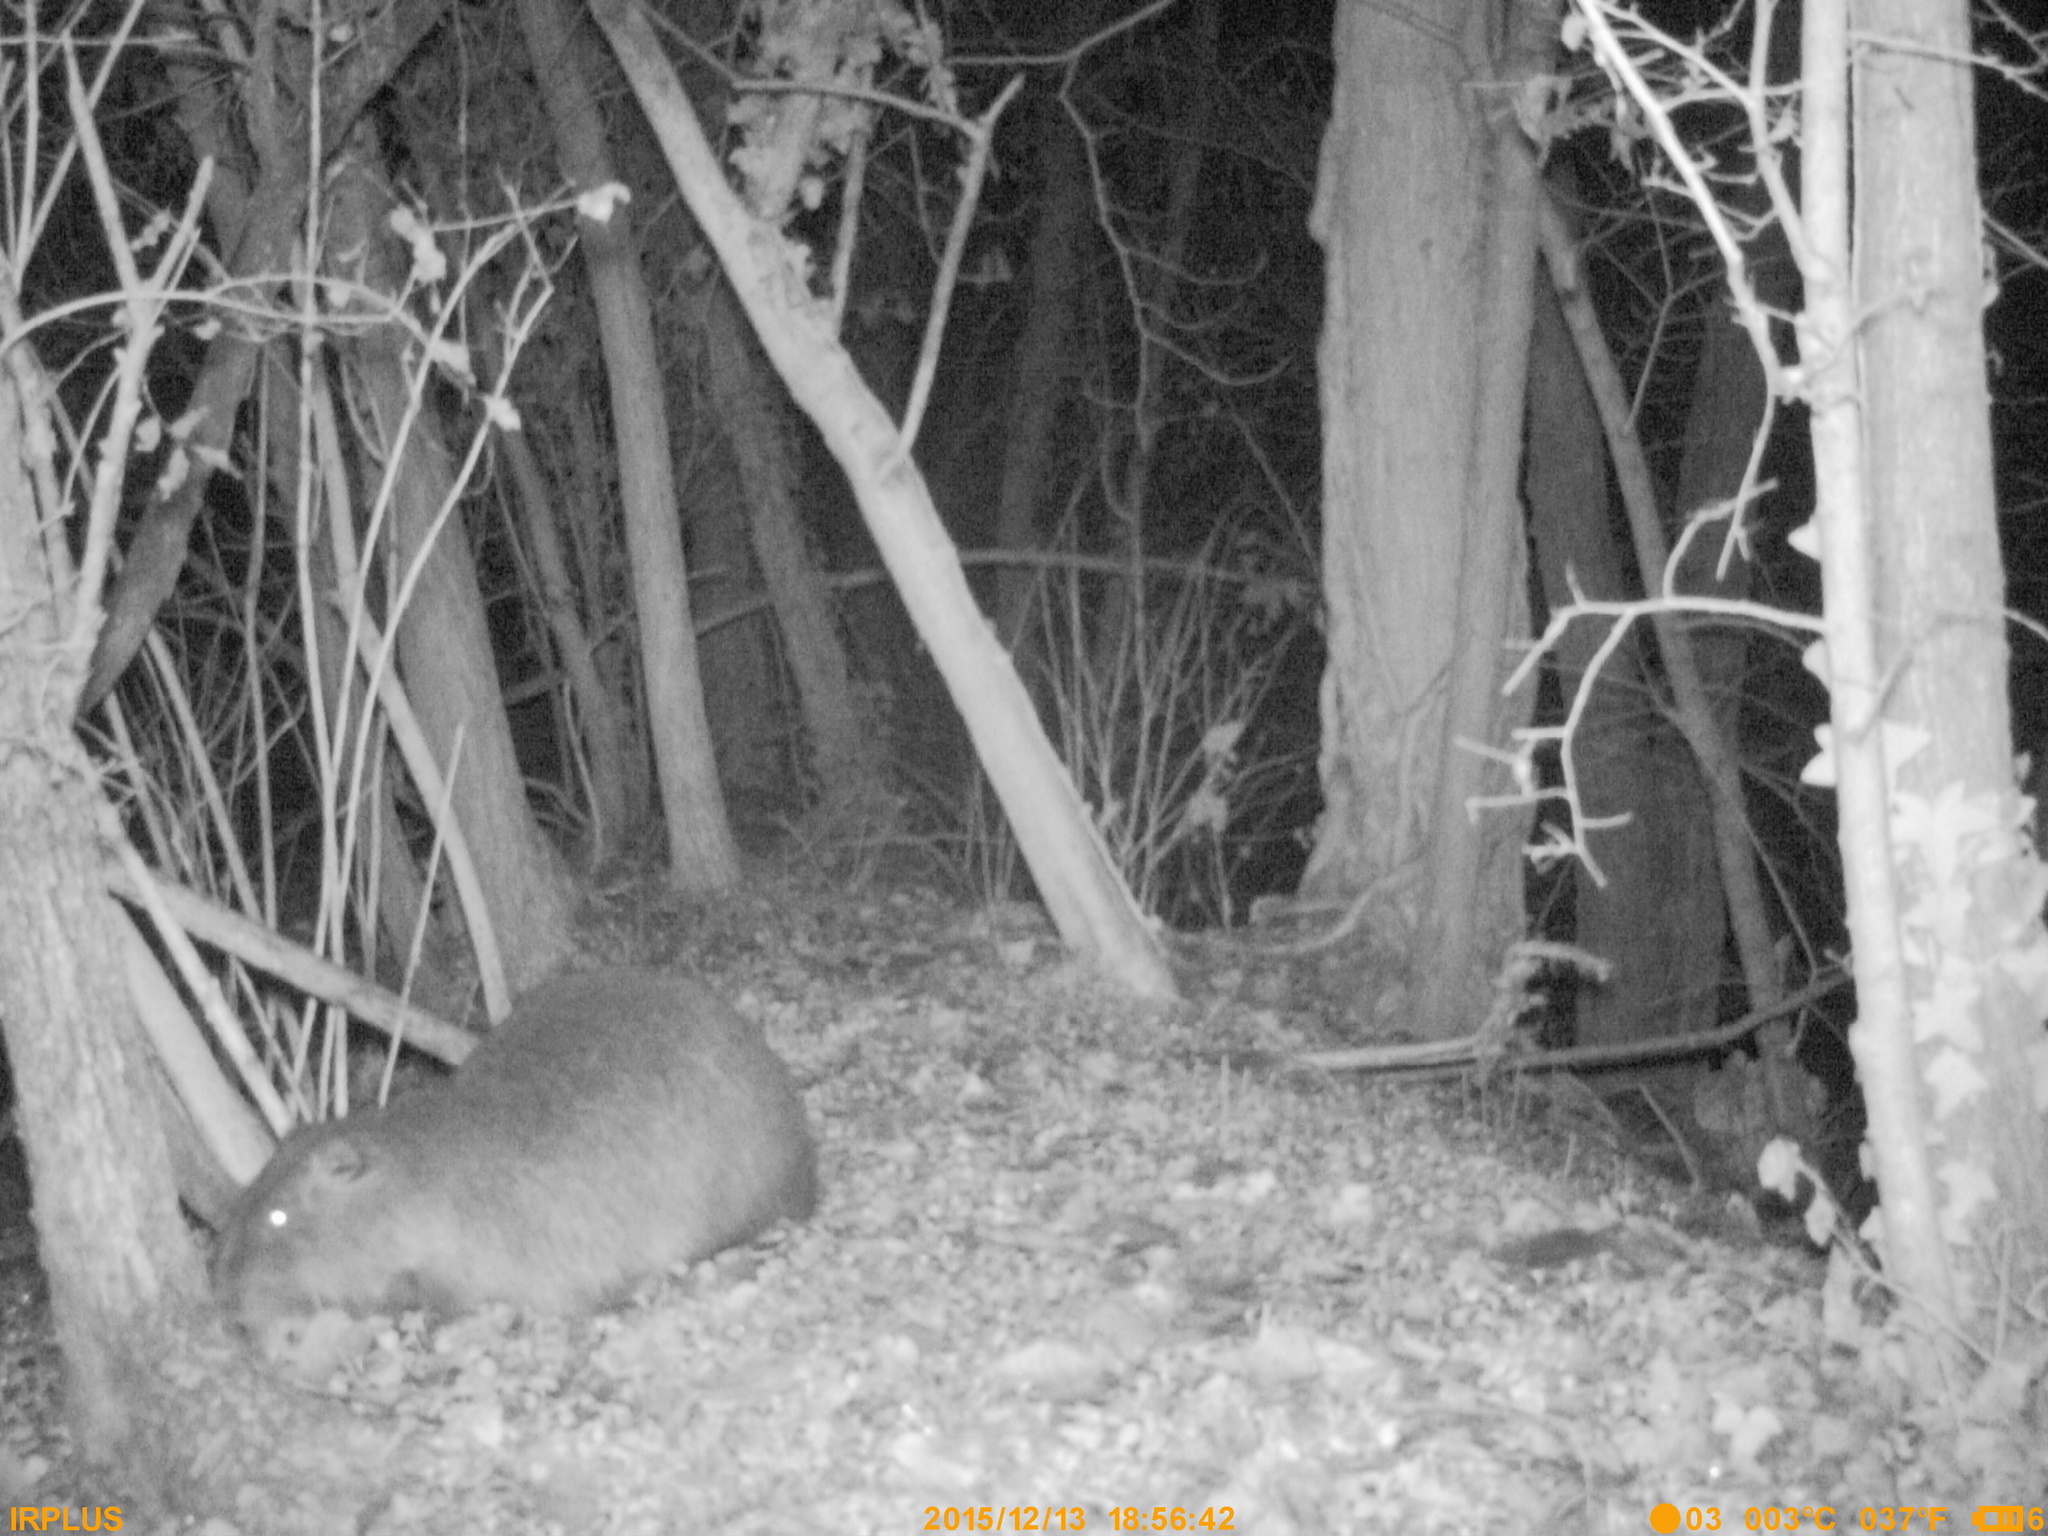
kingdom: Animalia
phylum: Chordata
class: Mammalia
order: Rodentia
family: Myocastoridae
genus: Myocastor
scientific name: Myocastor coypus
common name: Coypu
